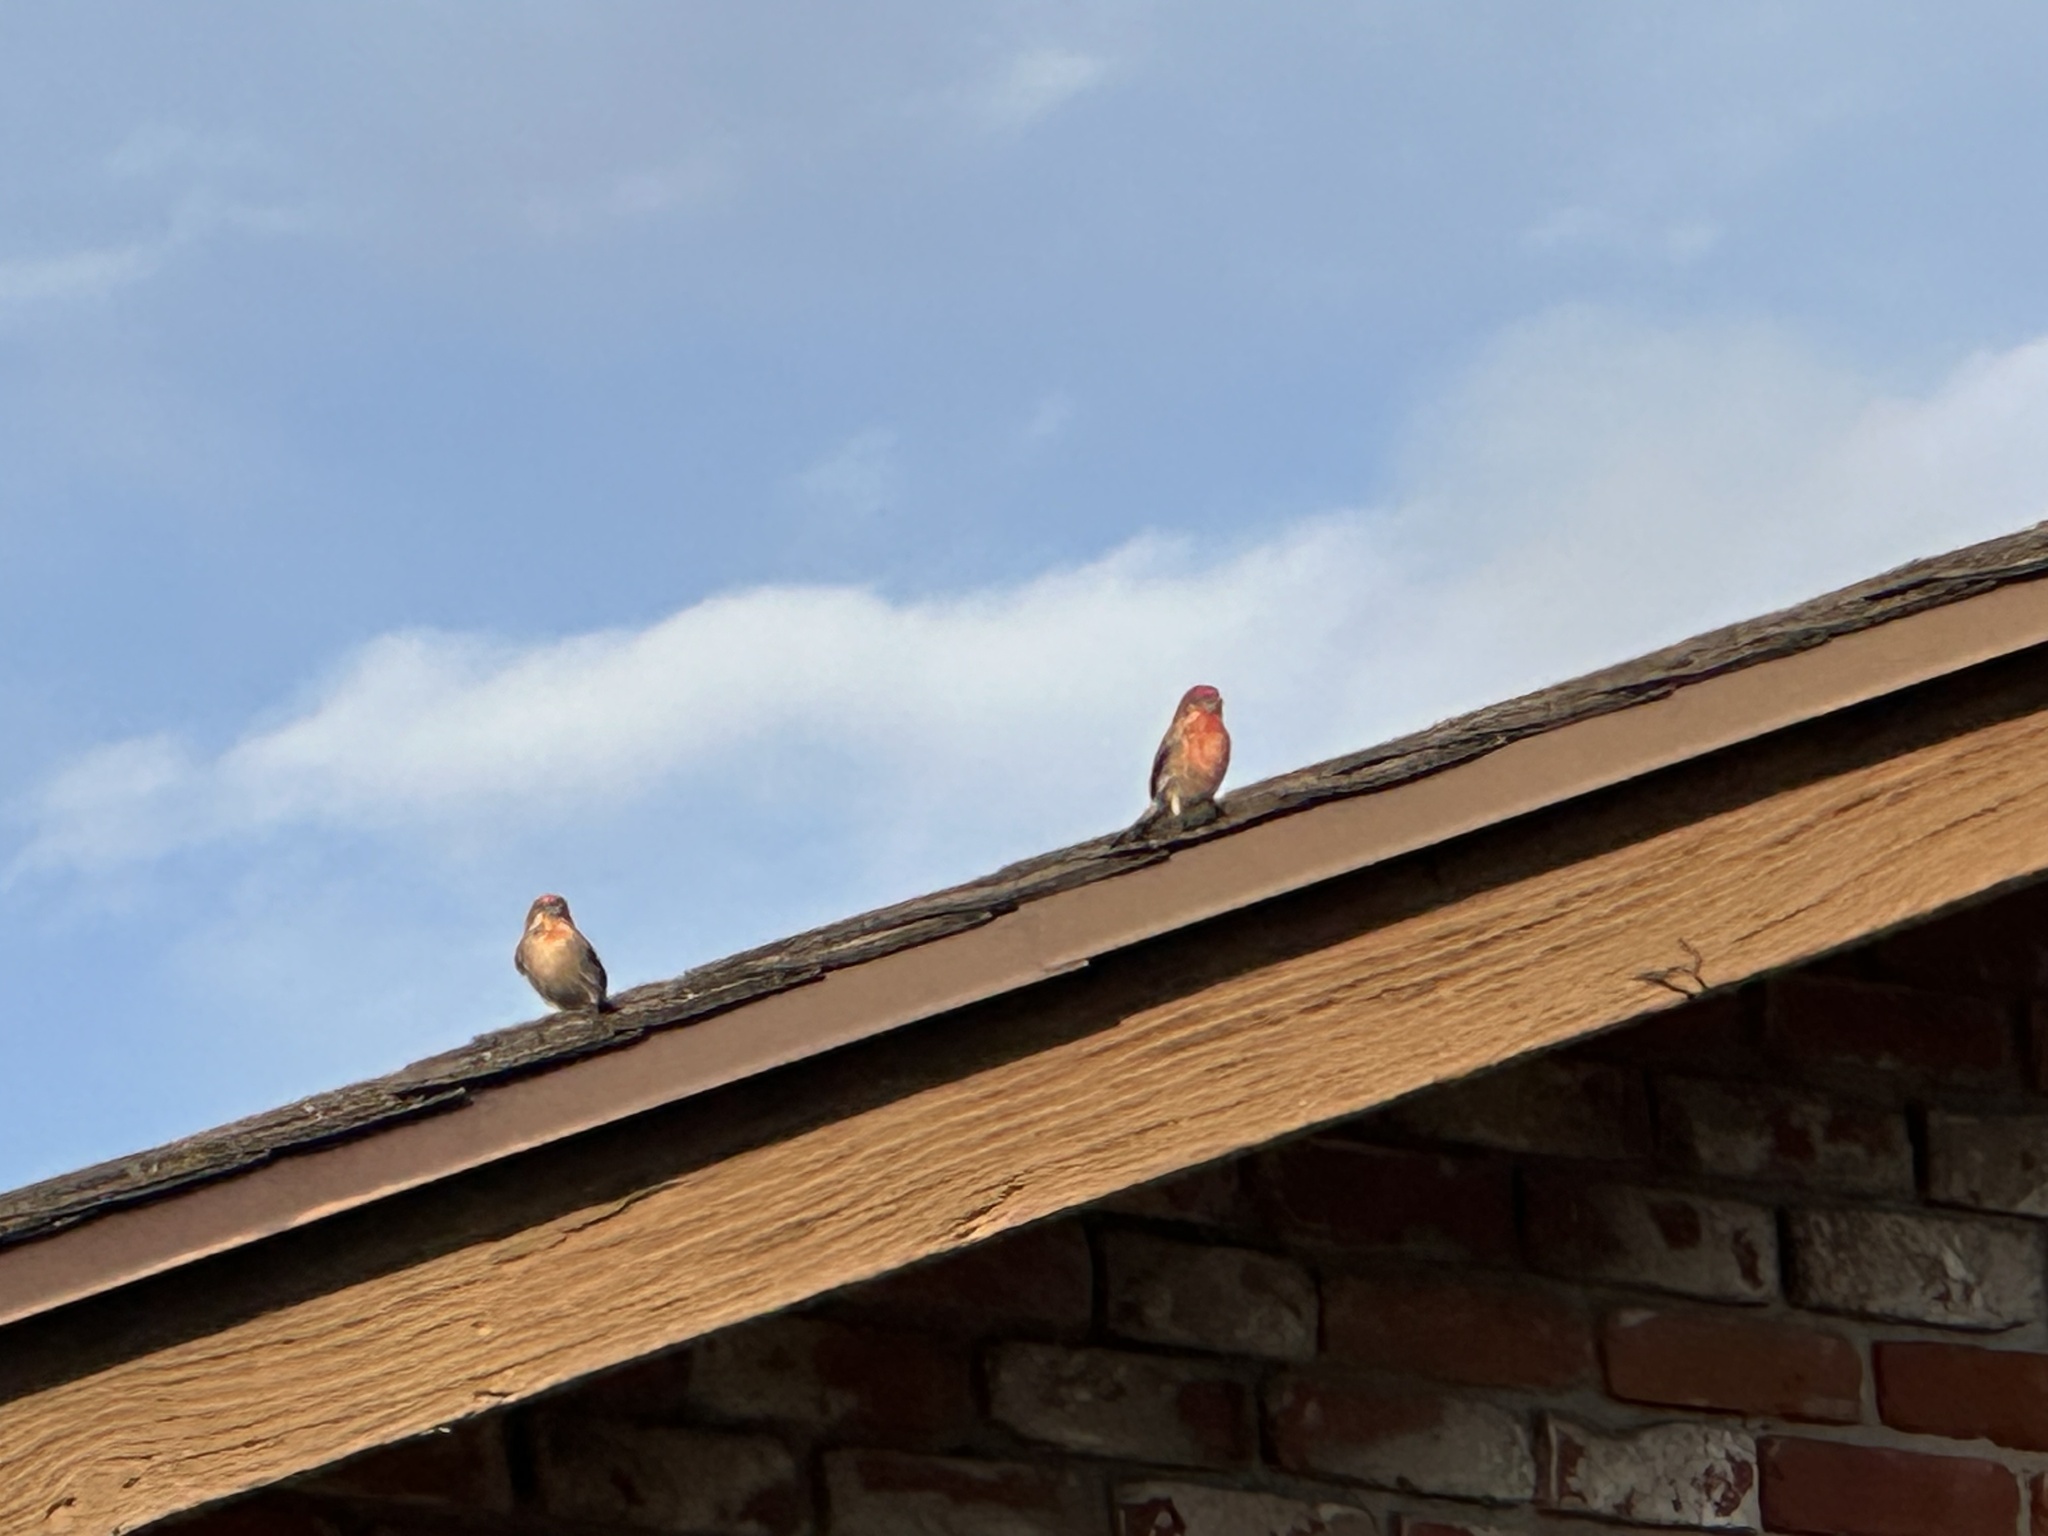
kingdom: Animalia
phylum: Chordata
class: Aves
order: Passeriformes
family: Fringillidae
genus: Haemorhous
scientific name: Haemorhous mexicanus
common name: House finch
